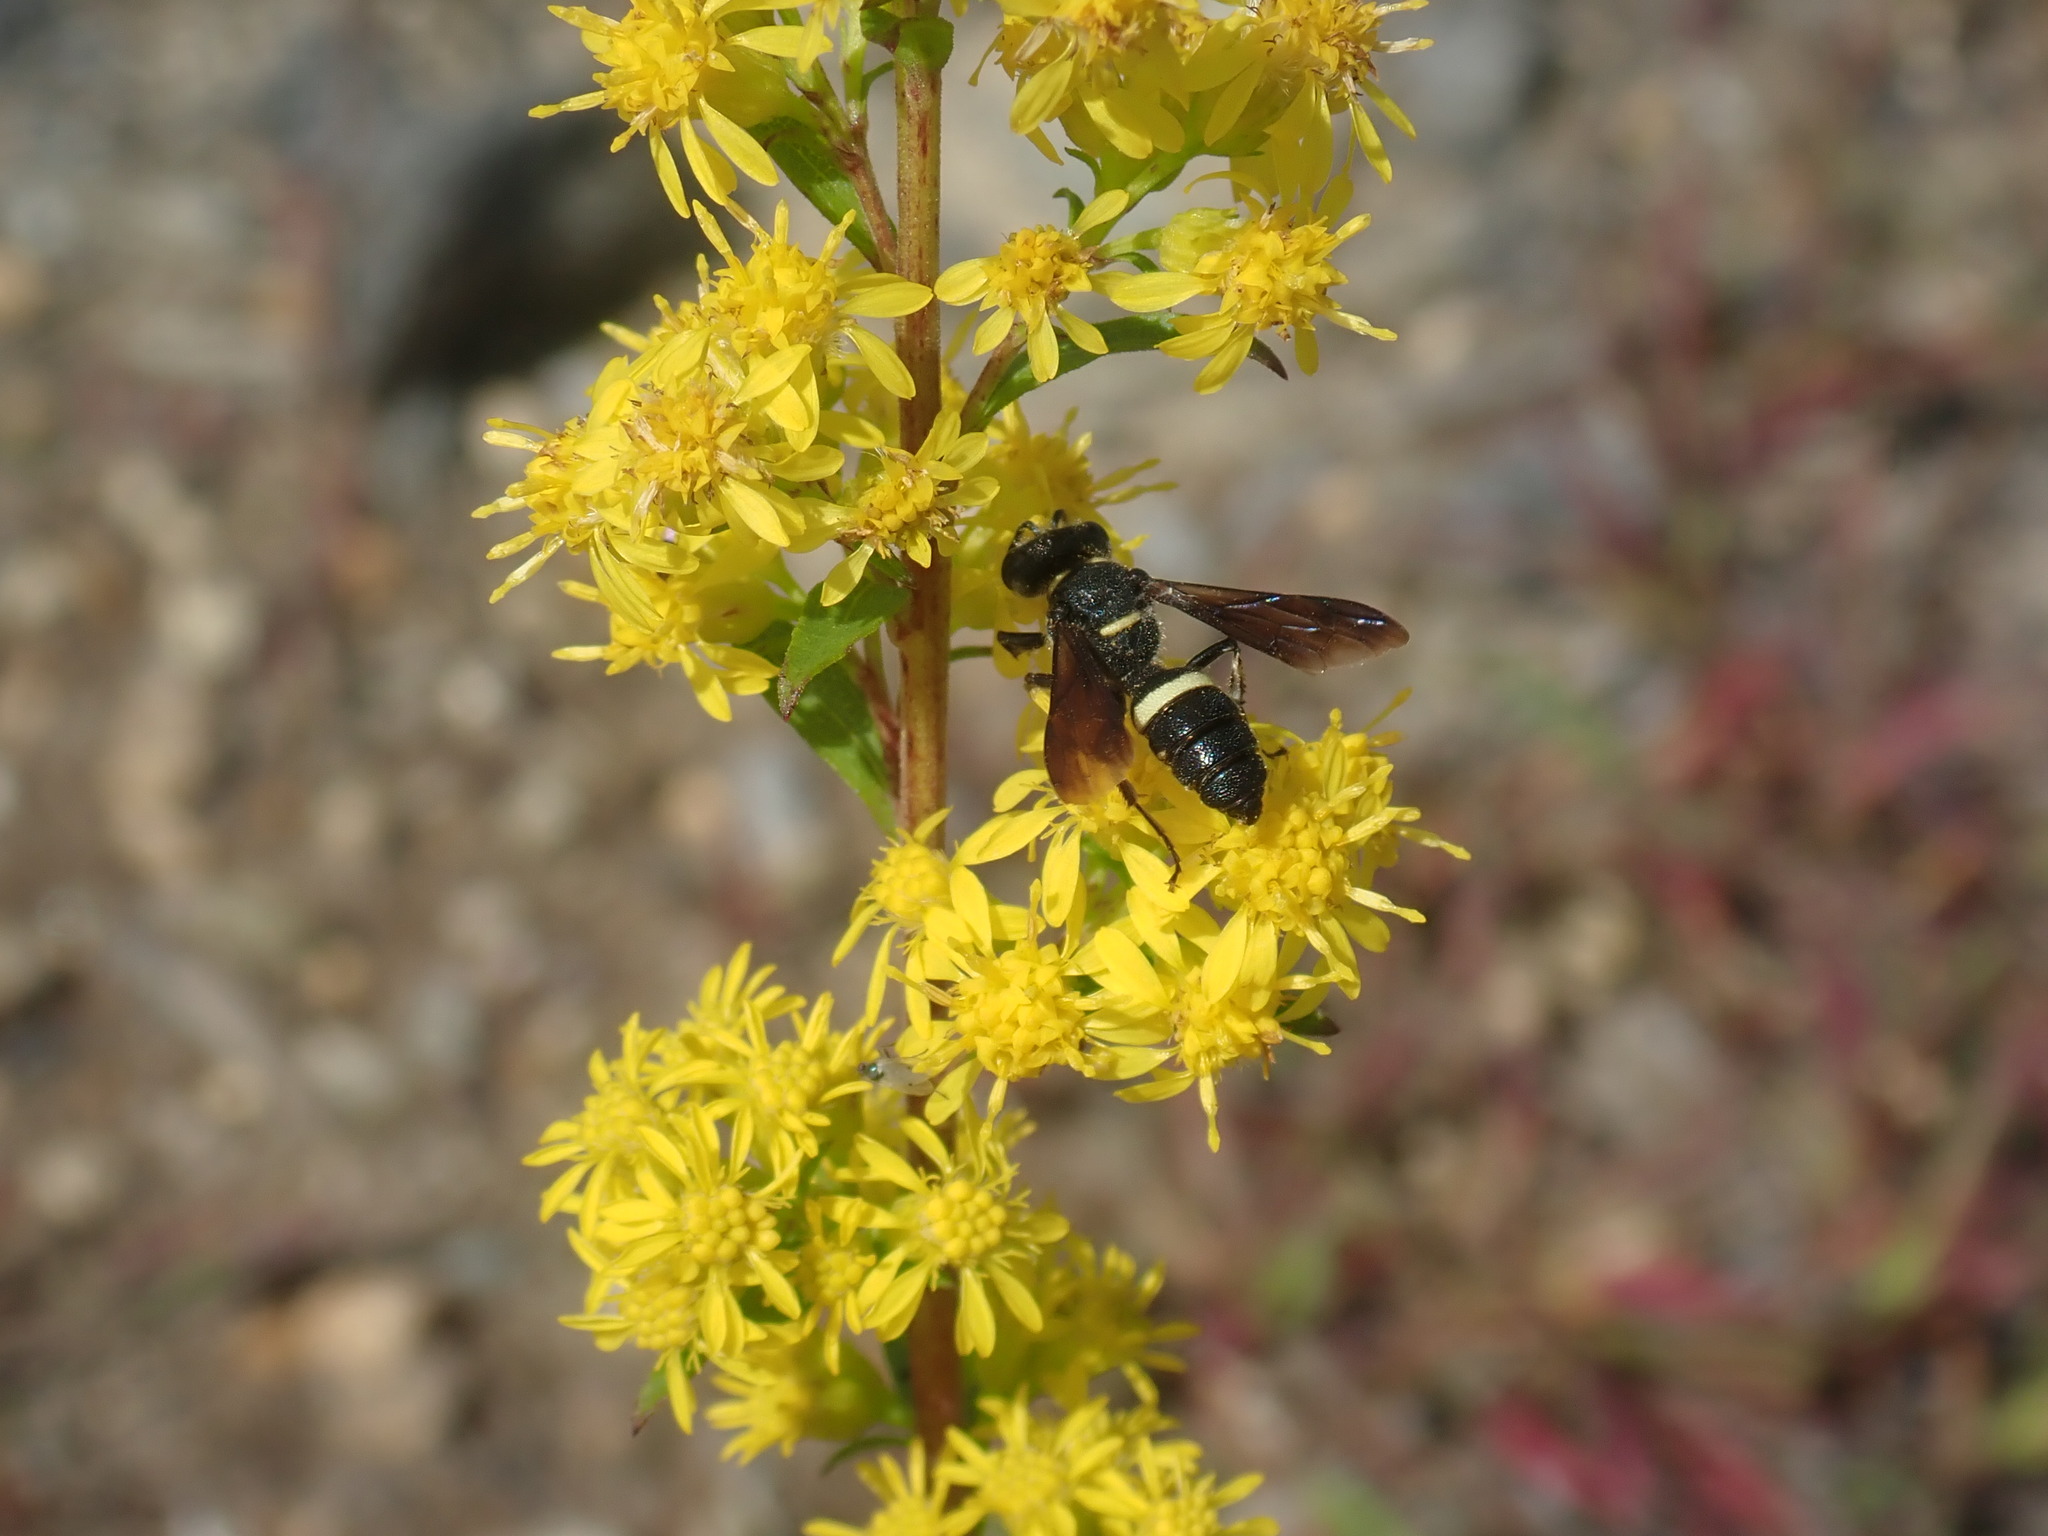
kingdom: Animalia
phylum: Arthropoda
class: Insecta
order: Hymenoptera
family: Crabronidae
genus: Cerceris
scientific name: Cerceris fumipennis
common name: Smokey-winged beetle bandit wasp
